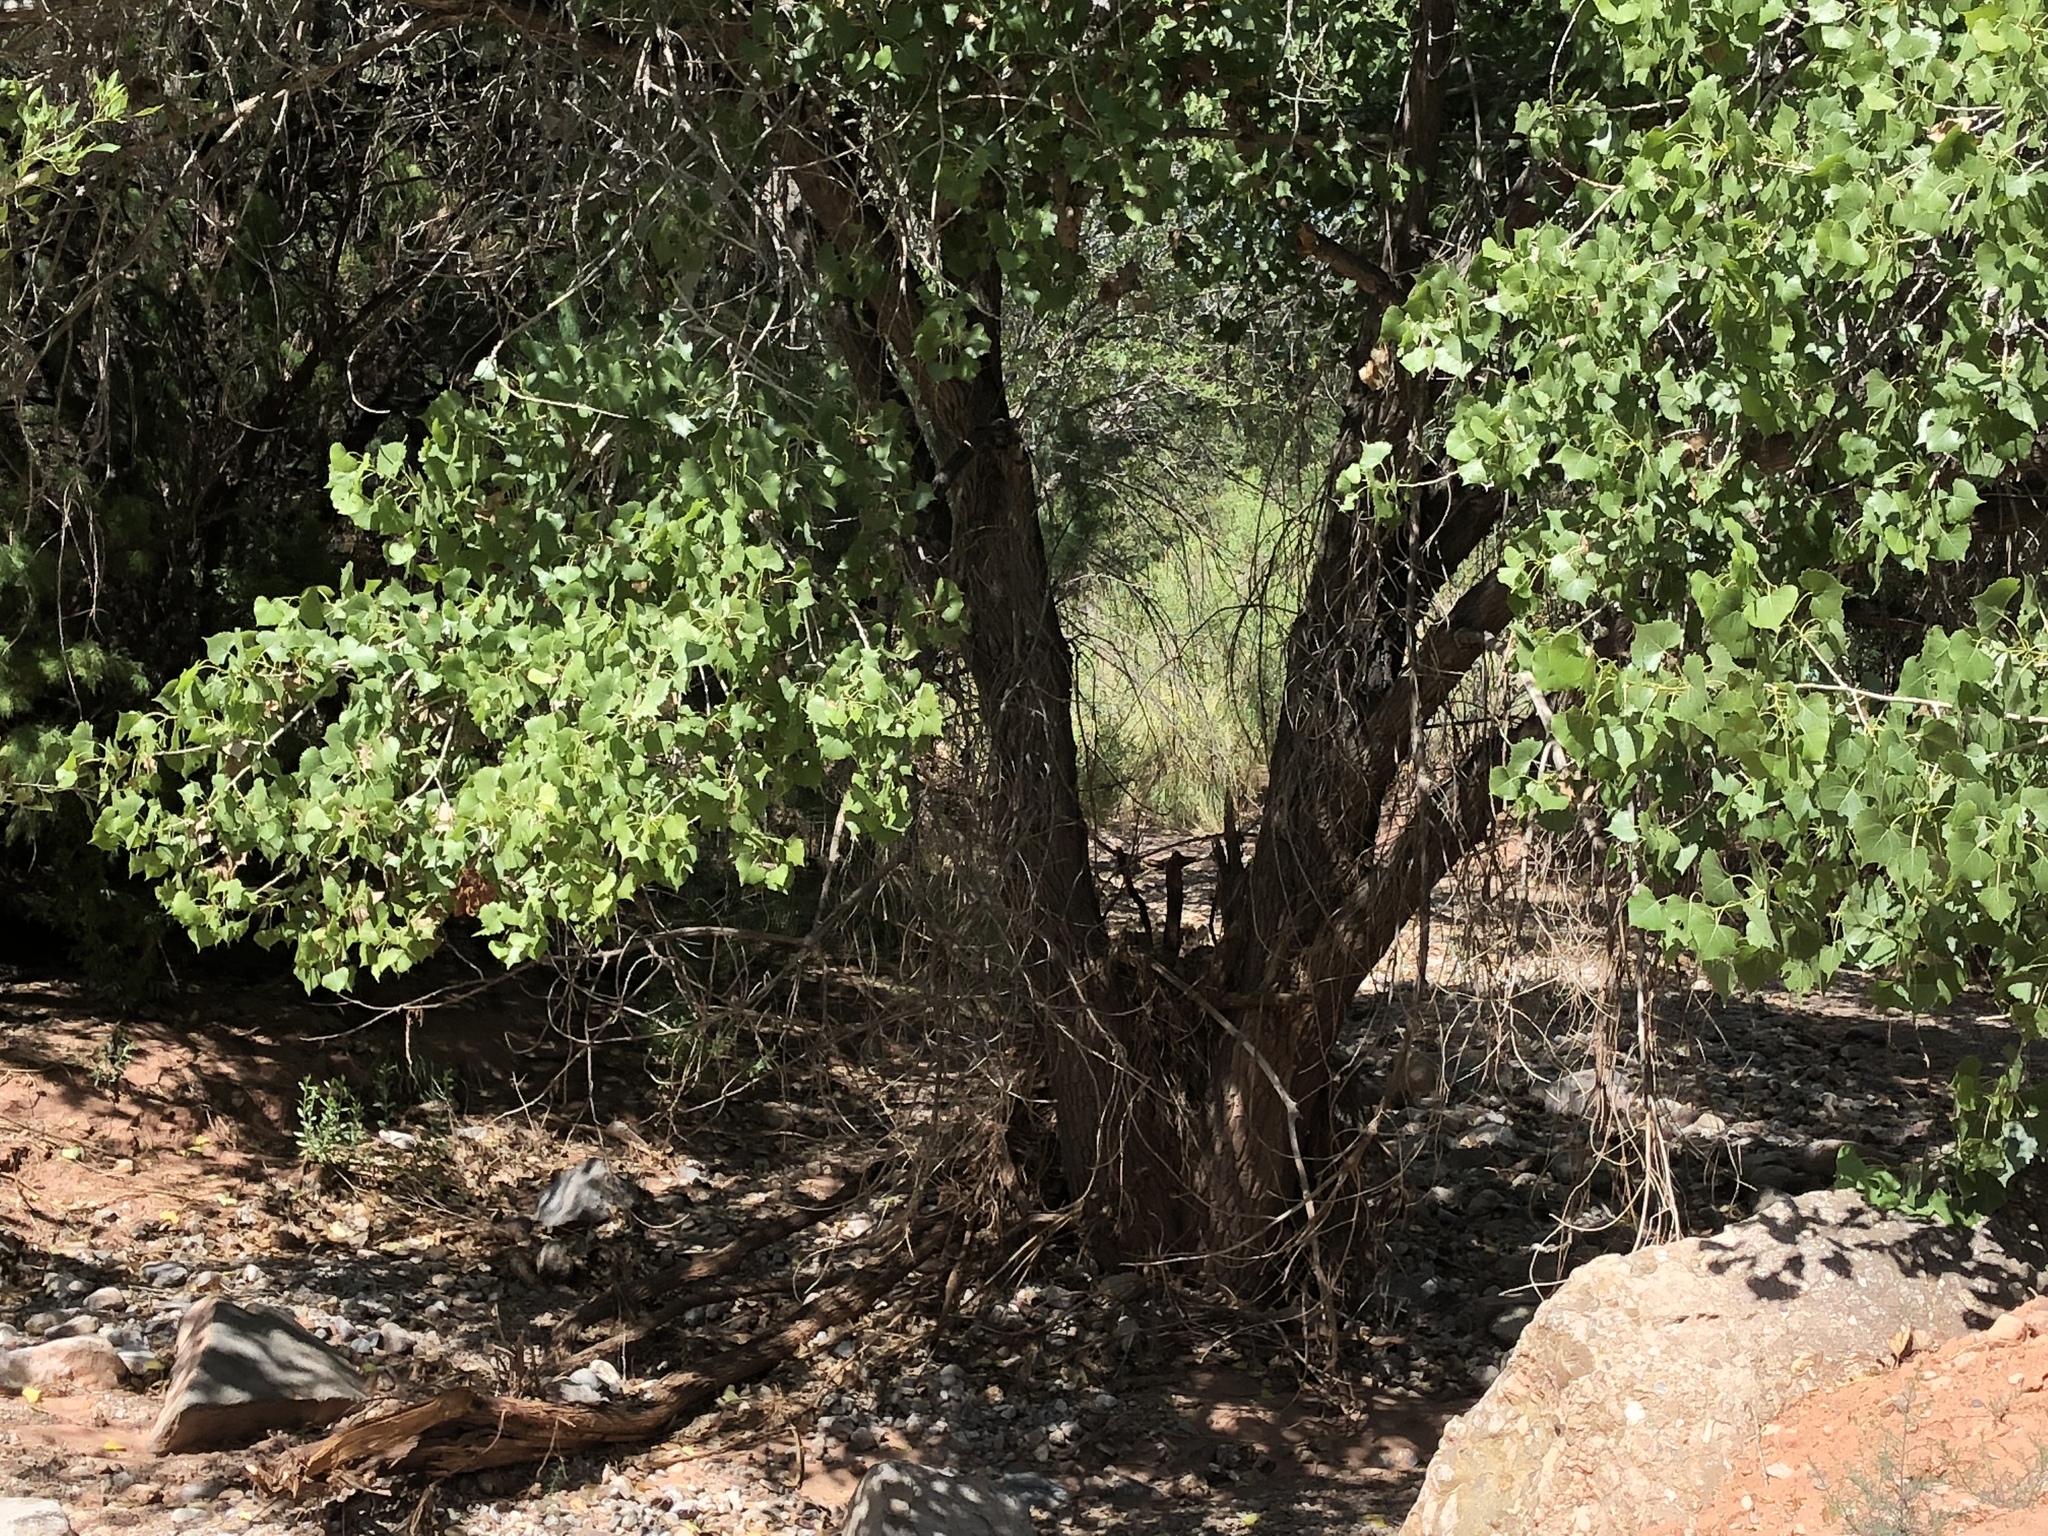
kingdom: Plantae
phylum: Tracheophyta
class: Magnoliopsida
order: Malpighiales
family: Salicaceae
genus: Populus
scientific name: Populus fremontii
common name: Fremont's cottonwood
